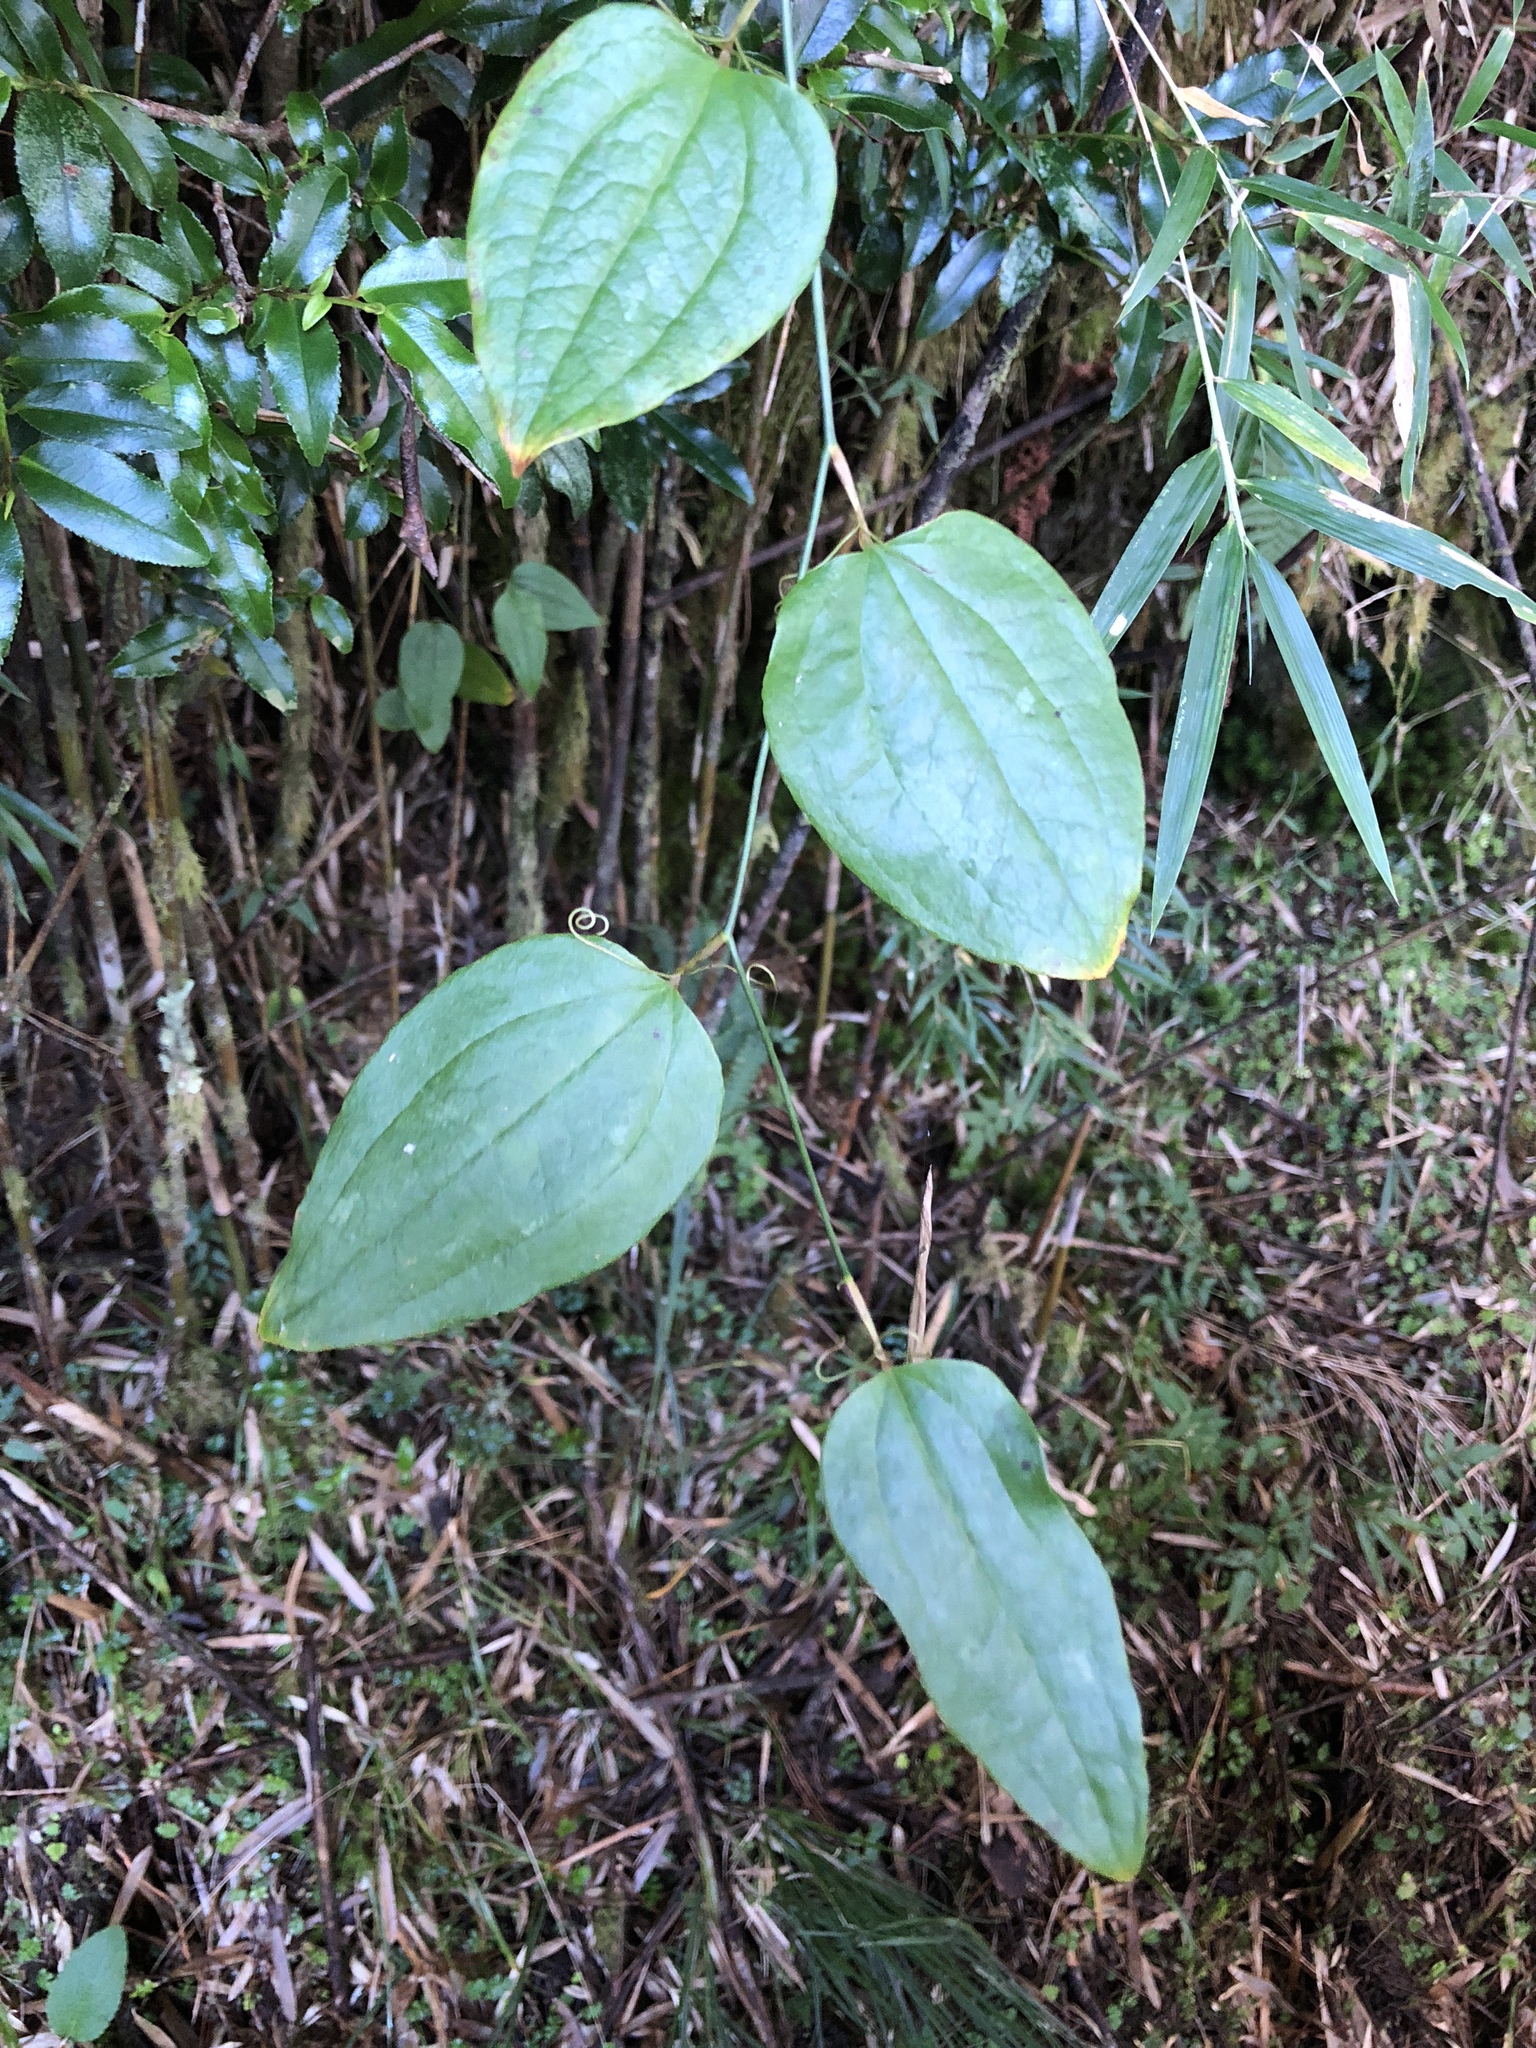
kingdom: Plantae
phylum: Tracheophyta
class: Liliopsida
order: Liliales
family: Smilacaceae
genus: Smilax
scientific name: Smilax vaginata
